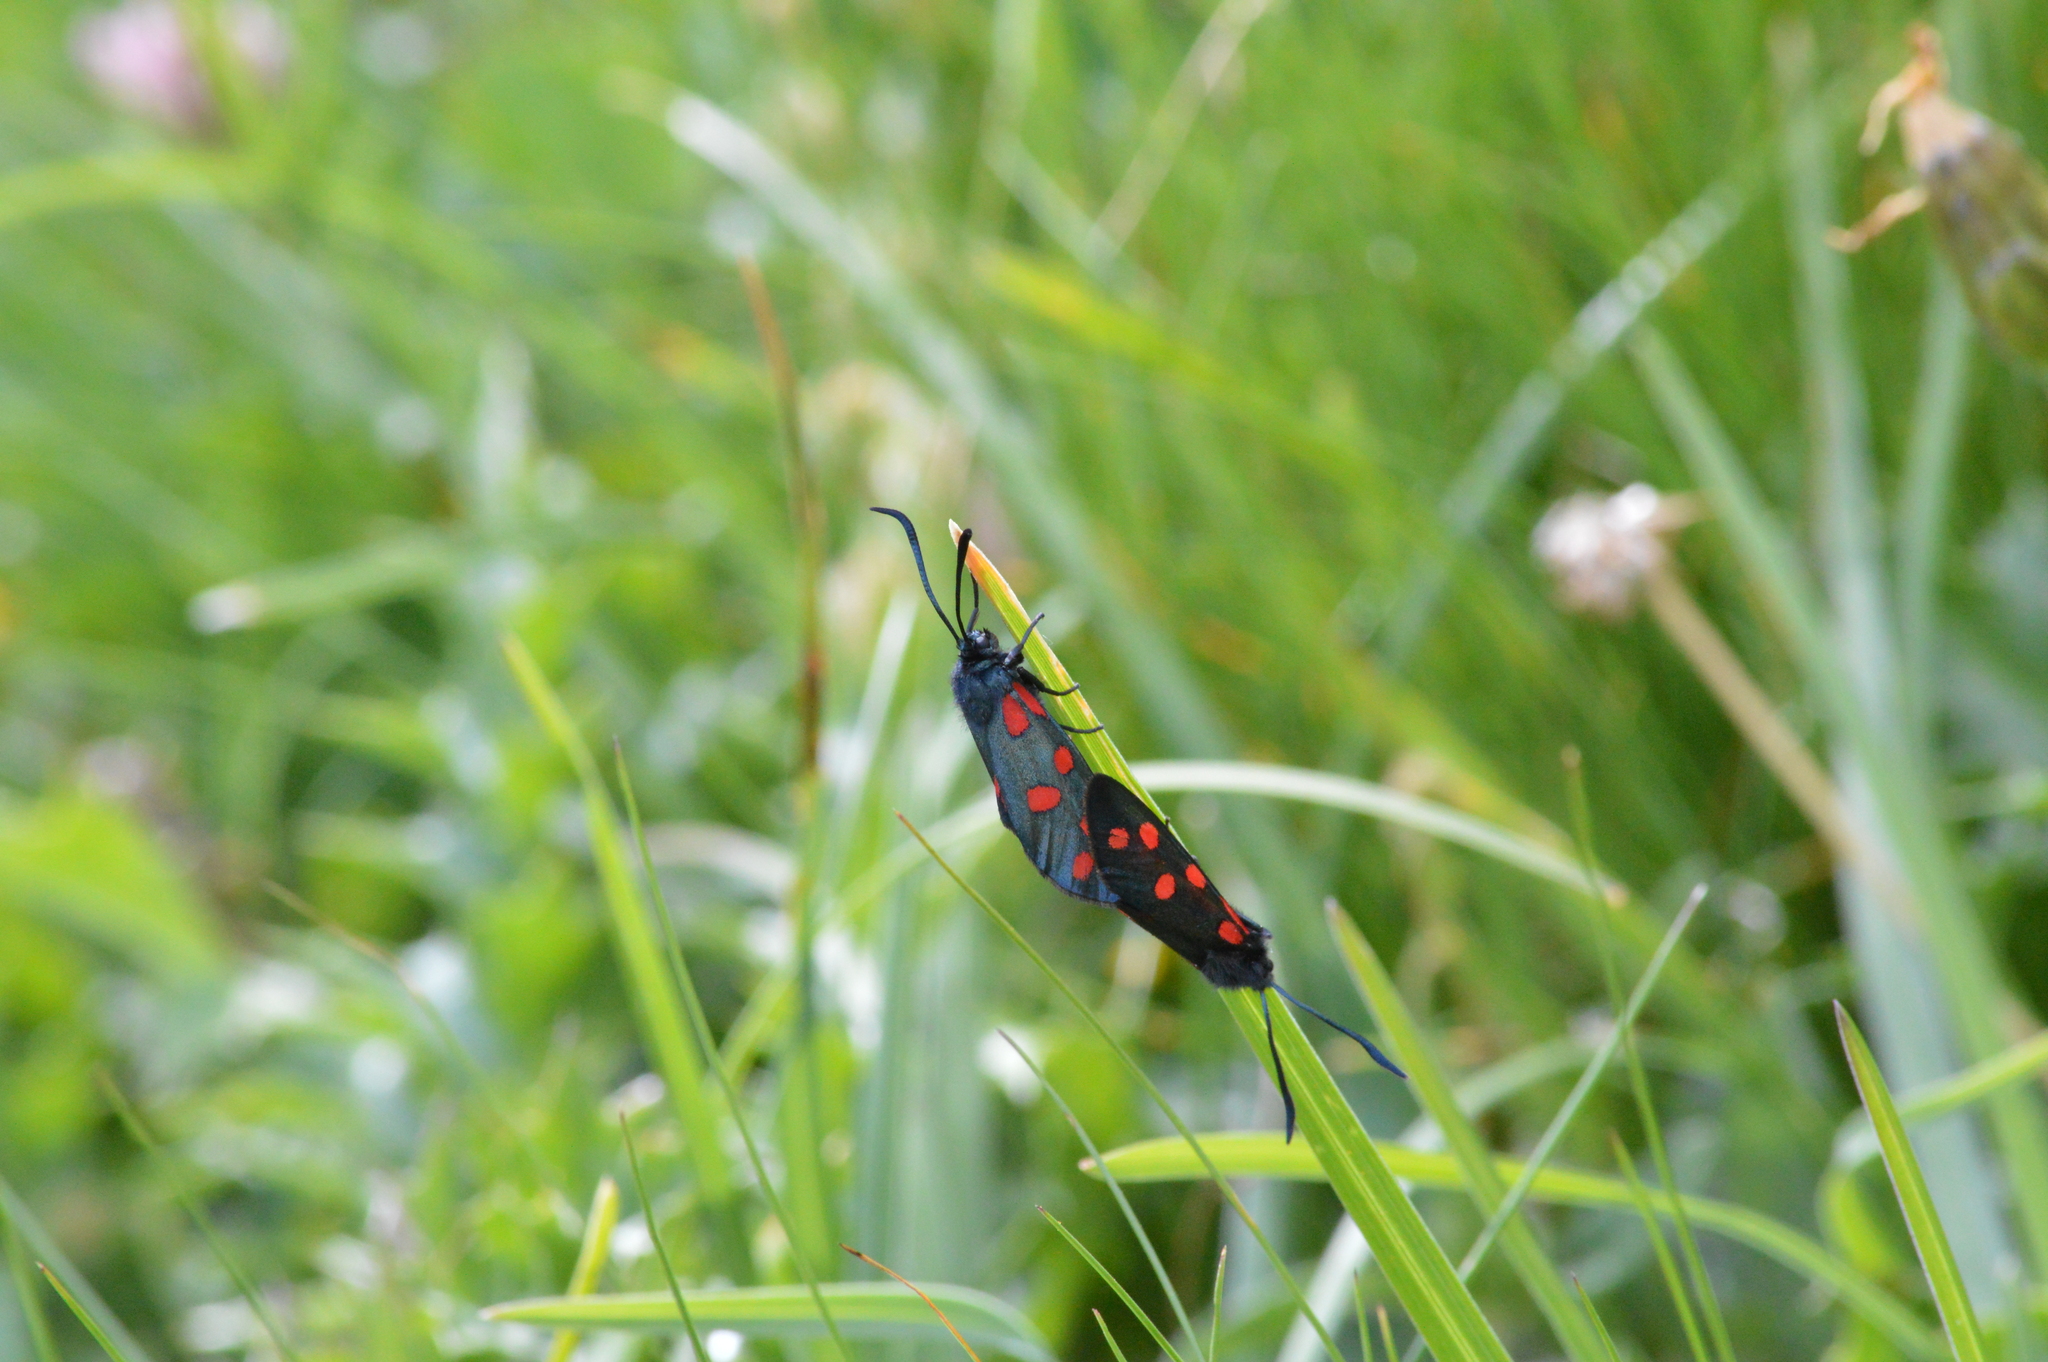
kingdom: Animalia
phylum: Arthropoda
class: Insecta
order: Lepidoptera
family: Zygaenidae
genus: Zygaena
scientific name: Zygaena transalpina
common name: Southern six spot burnet
